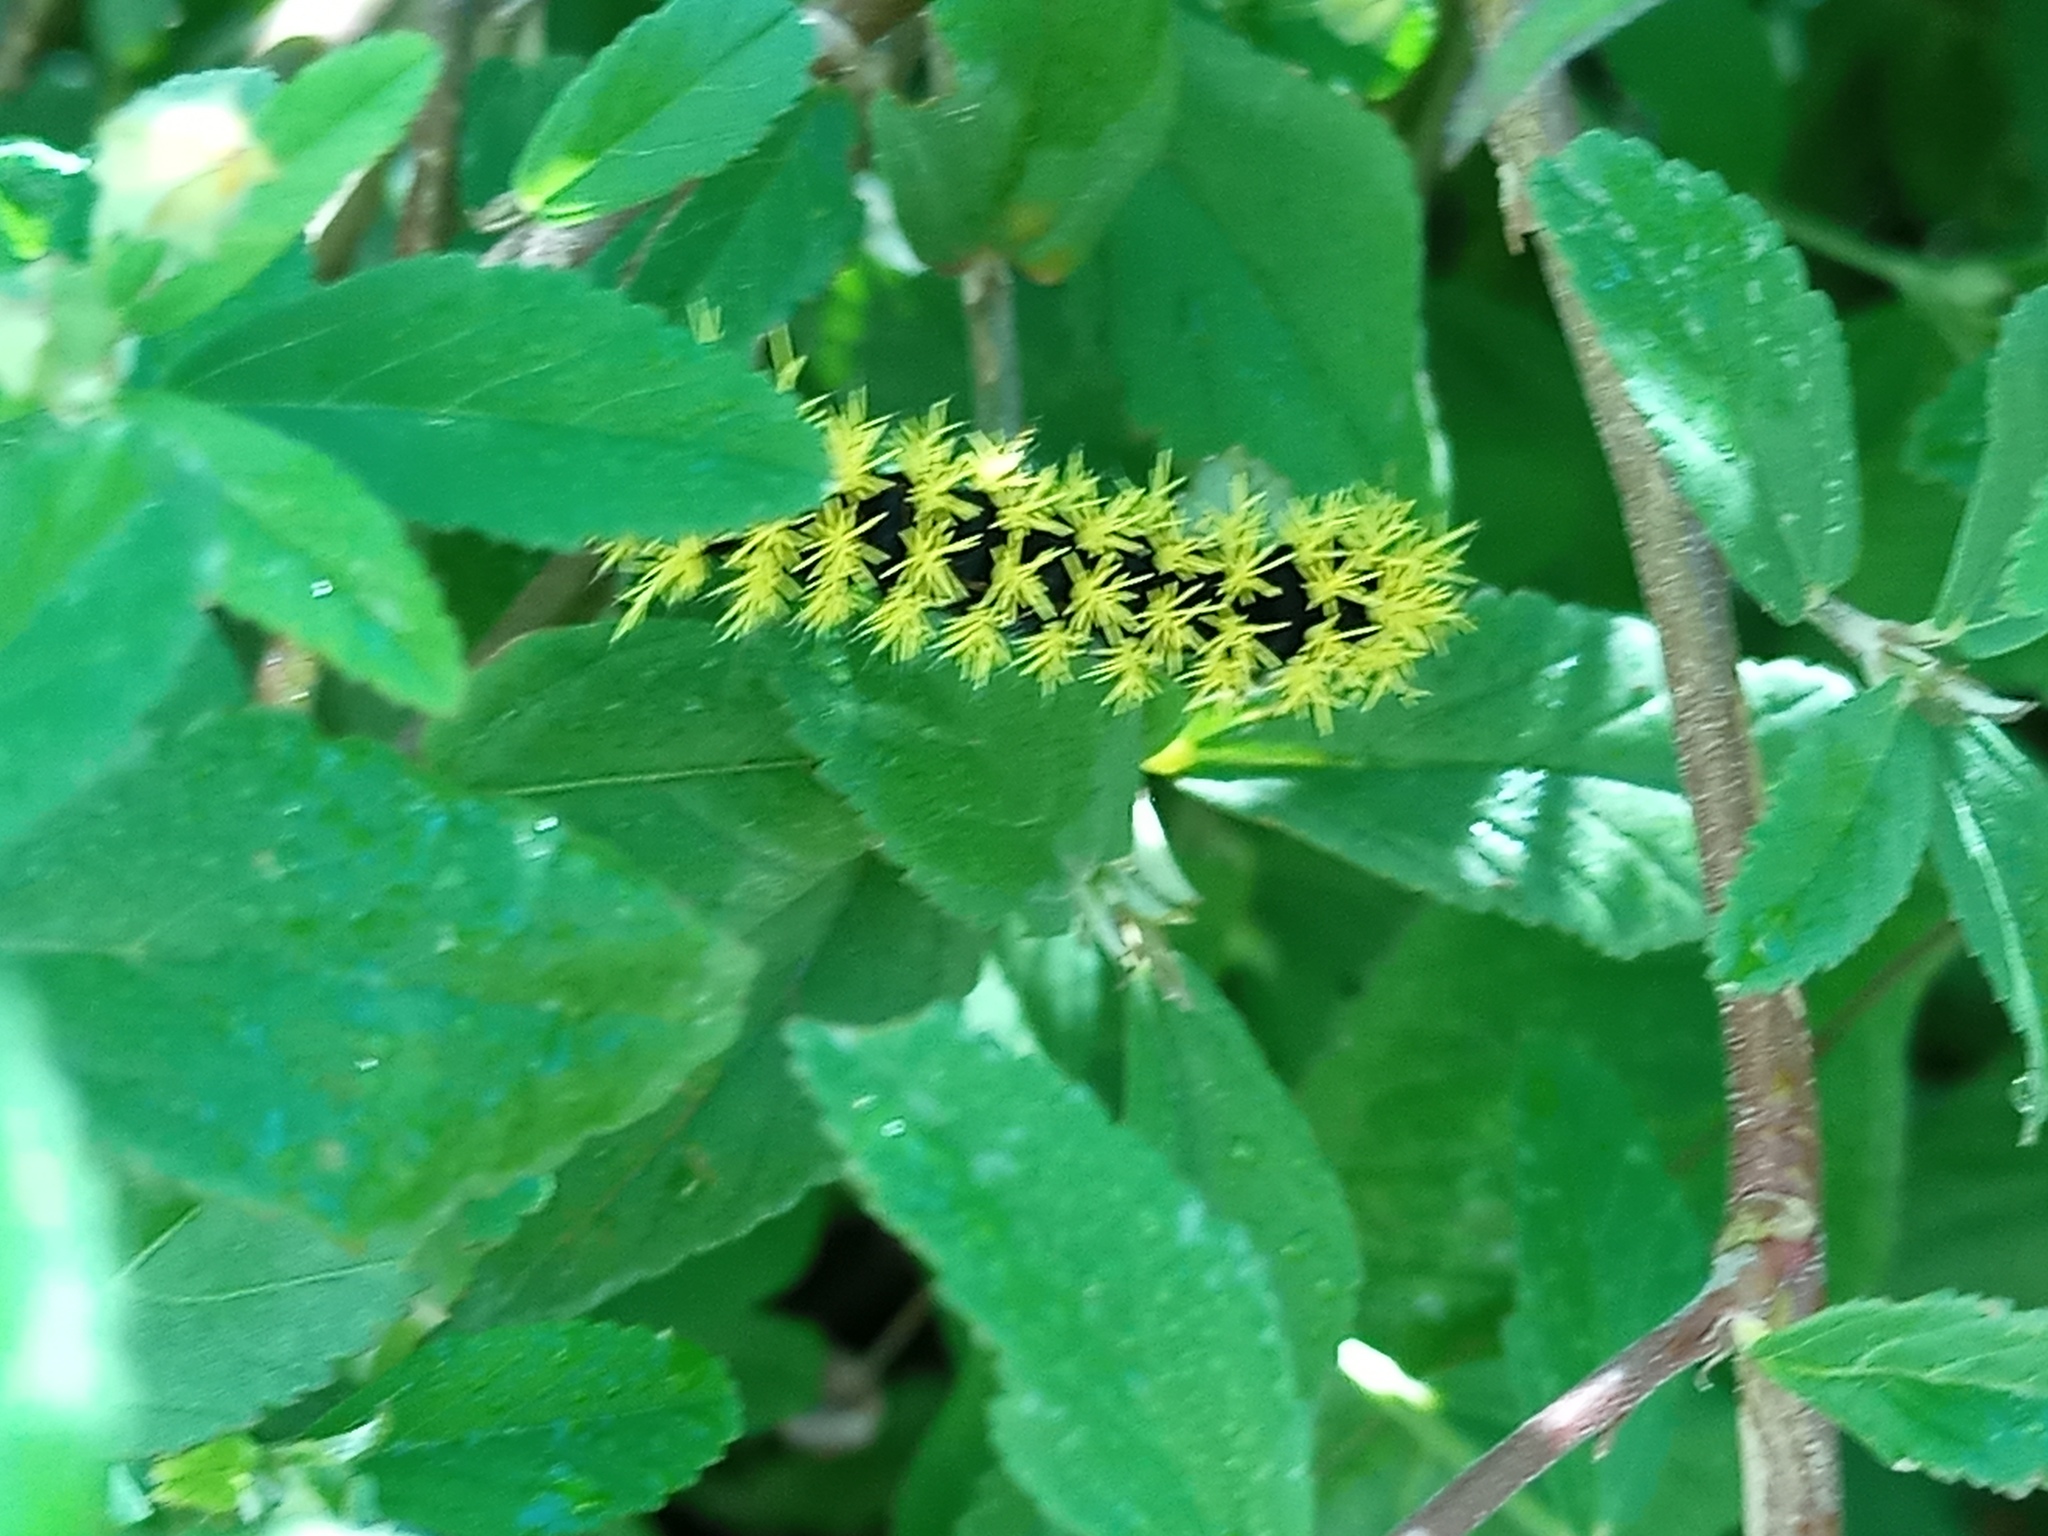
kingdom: Animalia
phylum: Arthropoda
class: Insecta
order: Lepidoptera
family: Saturniidae
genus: Leucanella
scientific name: Leucanella viridescens
